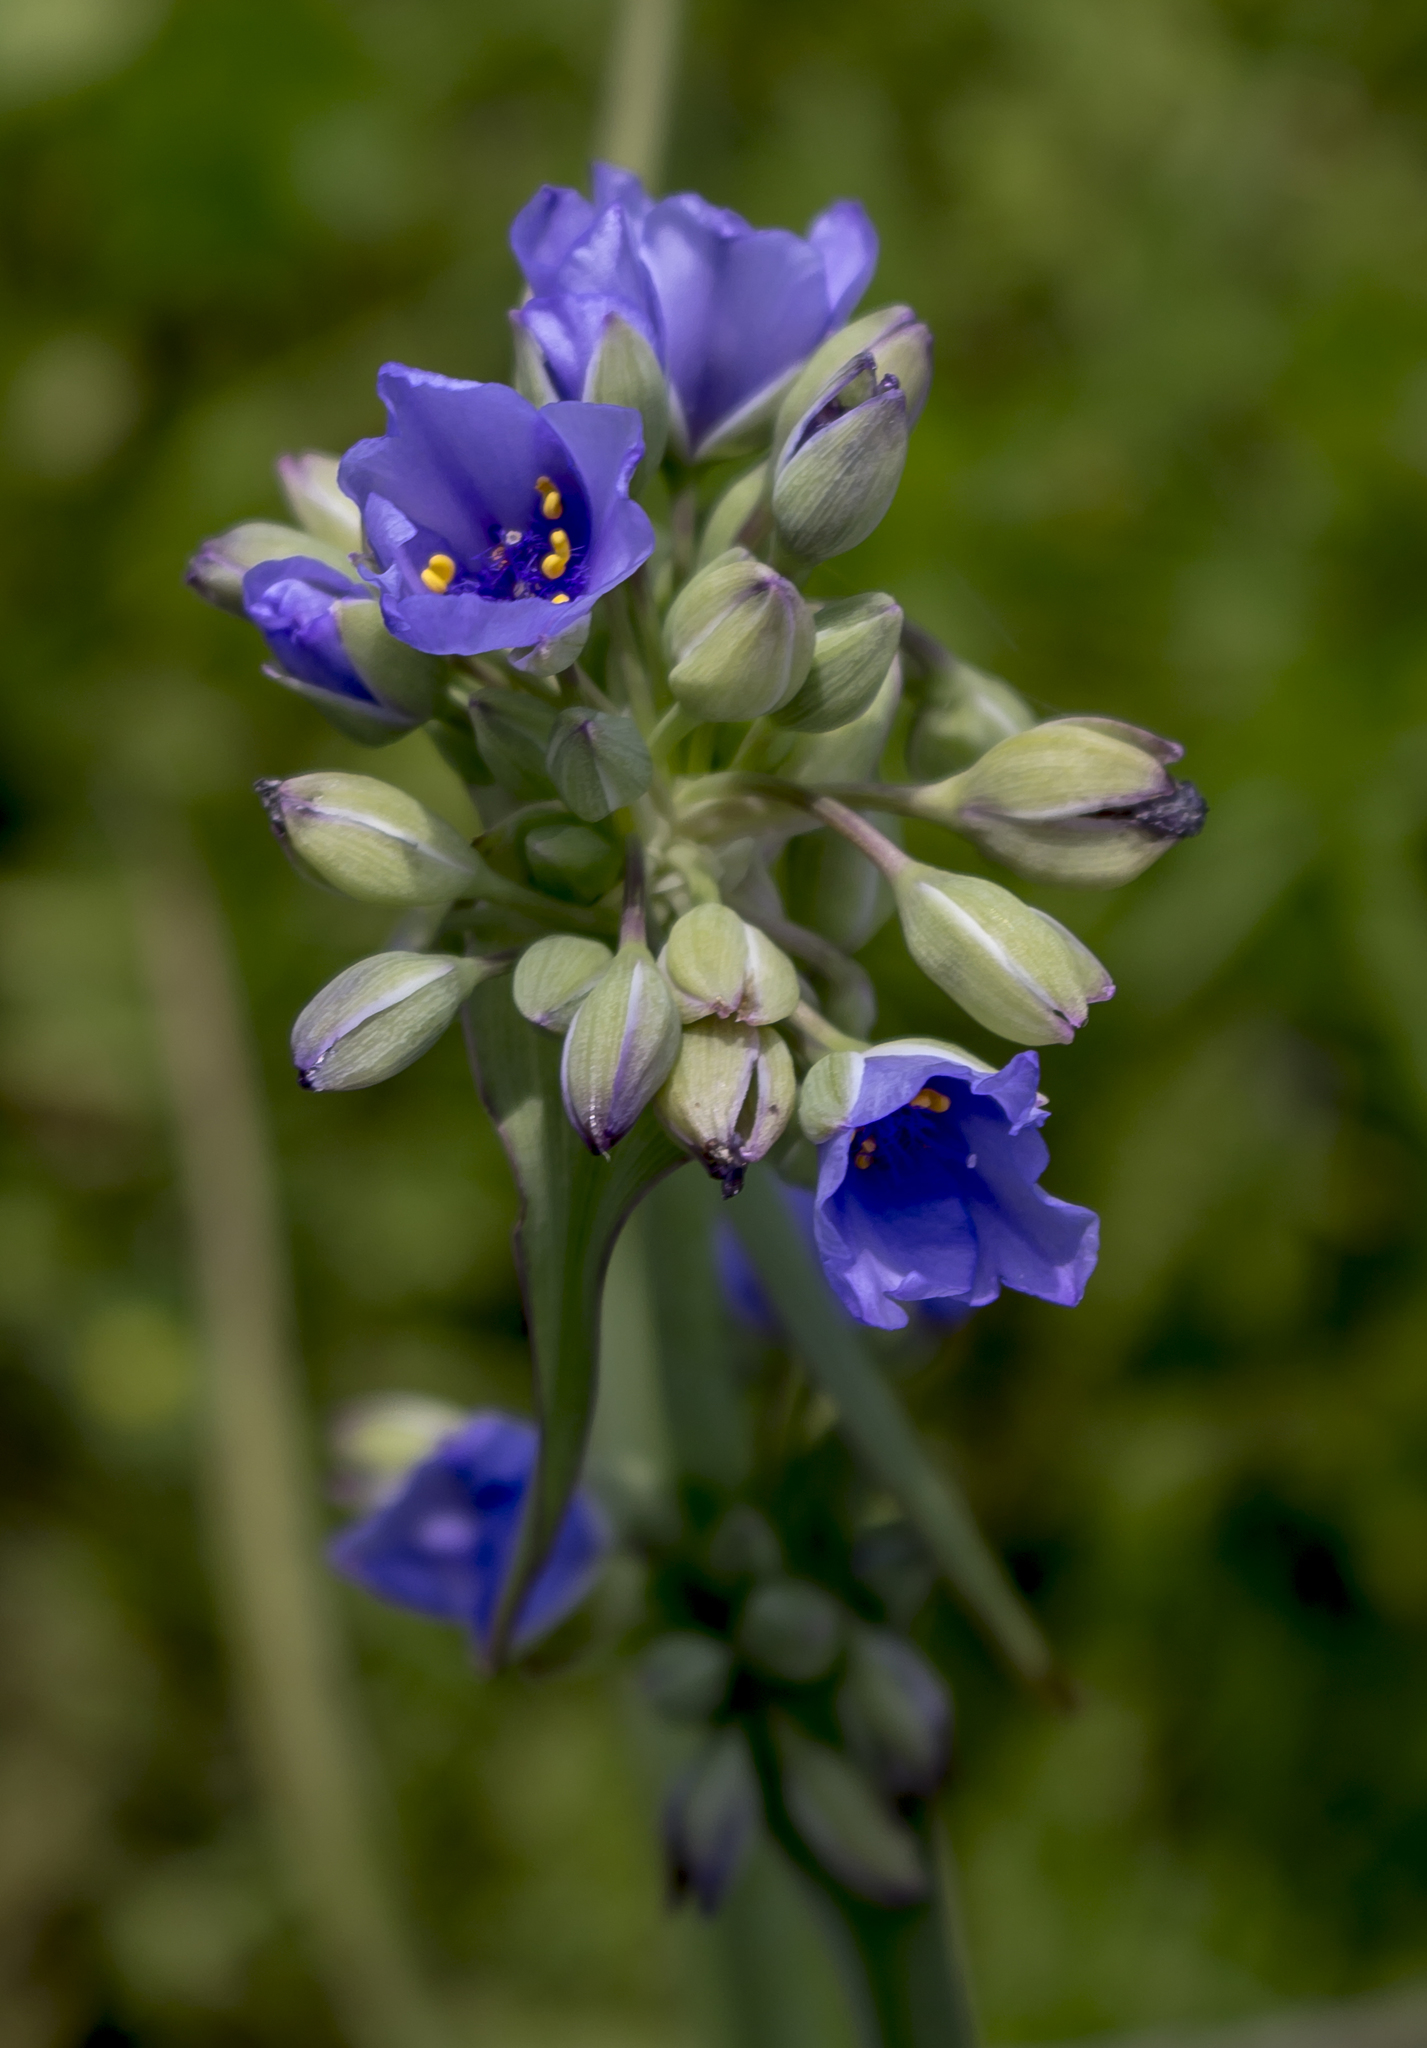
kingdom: Plantae
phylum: Tracheophyta
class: Liliopsida
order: Commelinales
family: Commelinaceae
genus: Tradescantia
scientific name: Tradescantia ohiensis
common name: Ohio spiderwort
